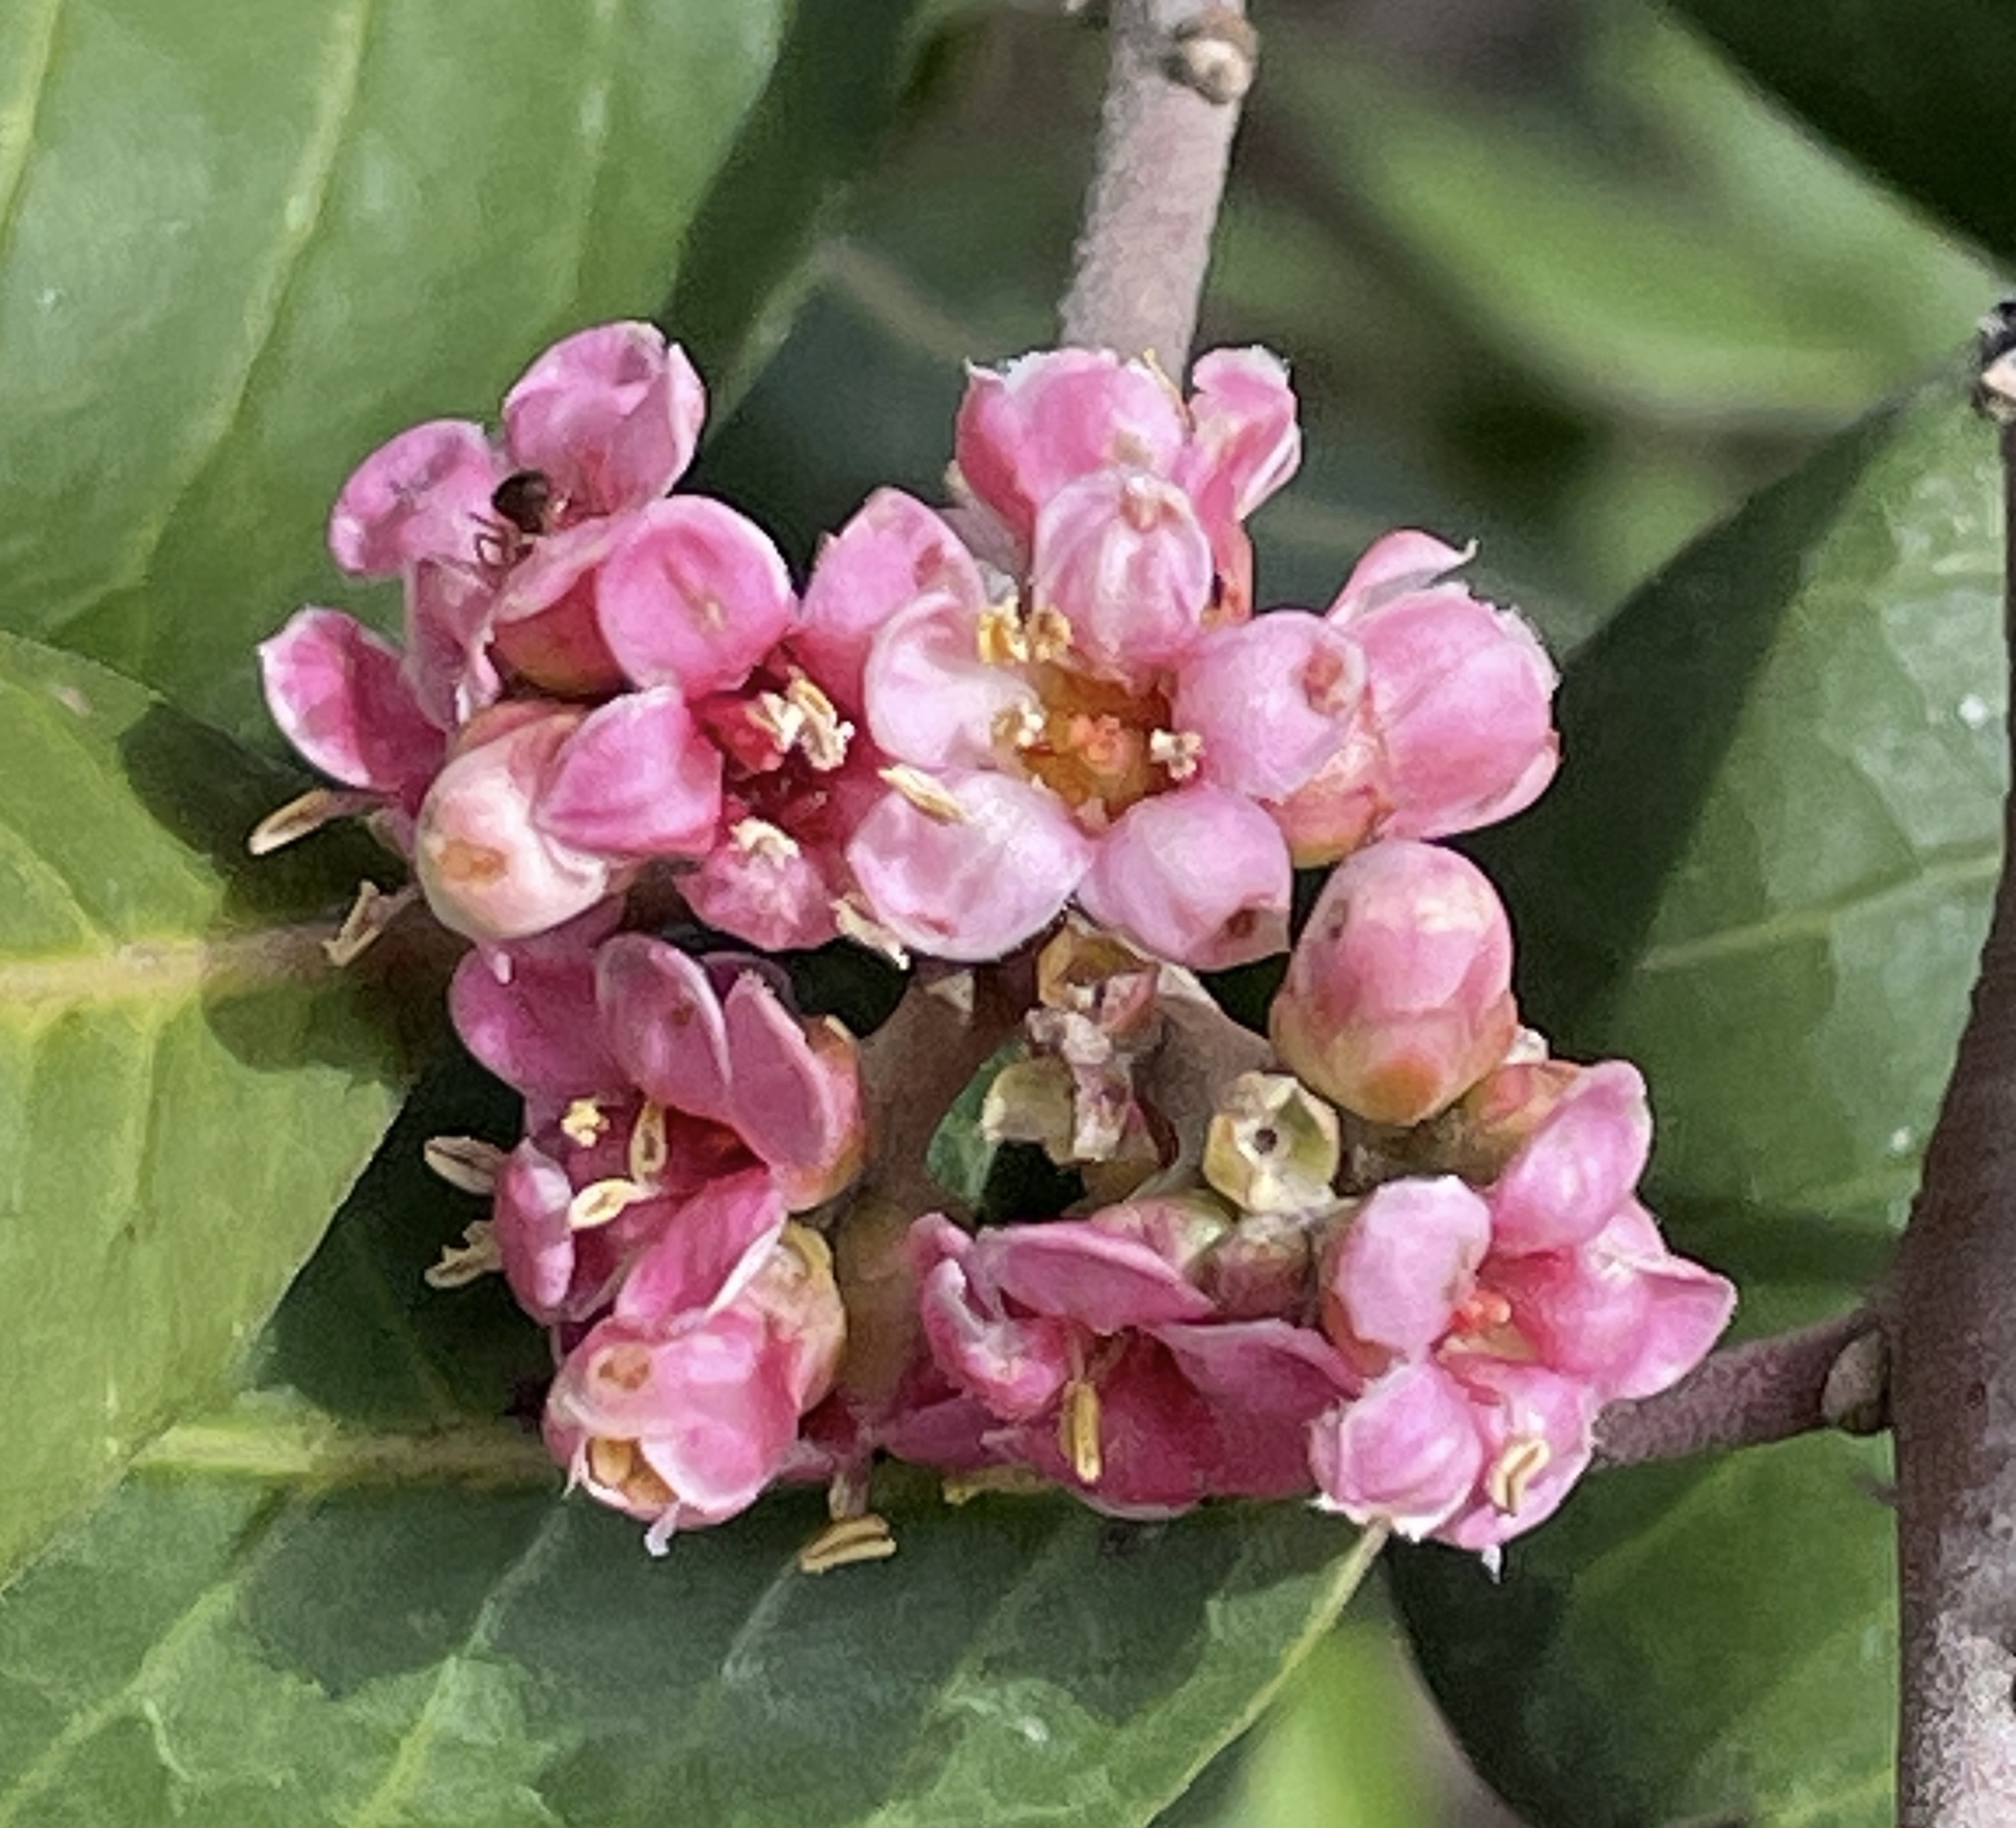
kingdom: Plantae
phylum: Tracheophyta
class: Magnoliopsida
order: Sapindales
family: Anacardiaceae
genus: Rhus
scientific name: Rhus integrifolia
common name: Lemonade sumac
